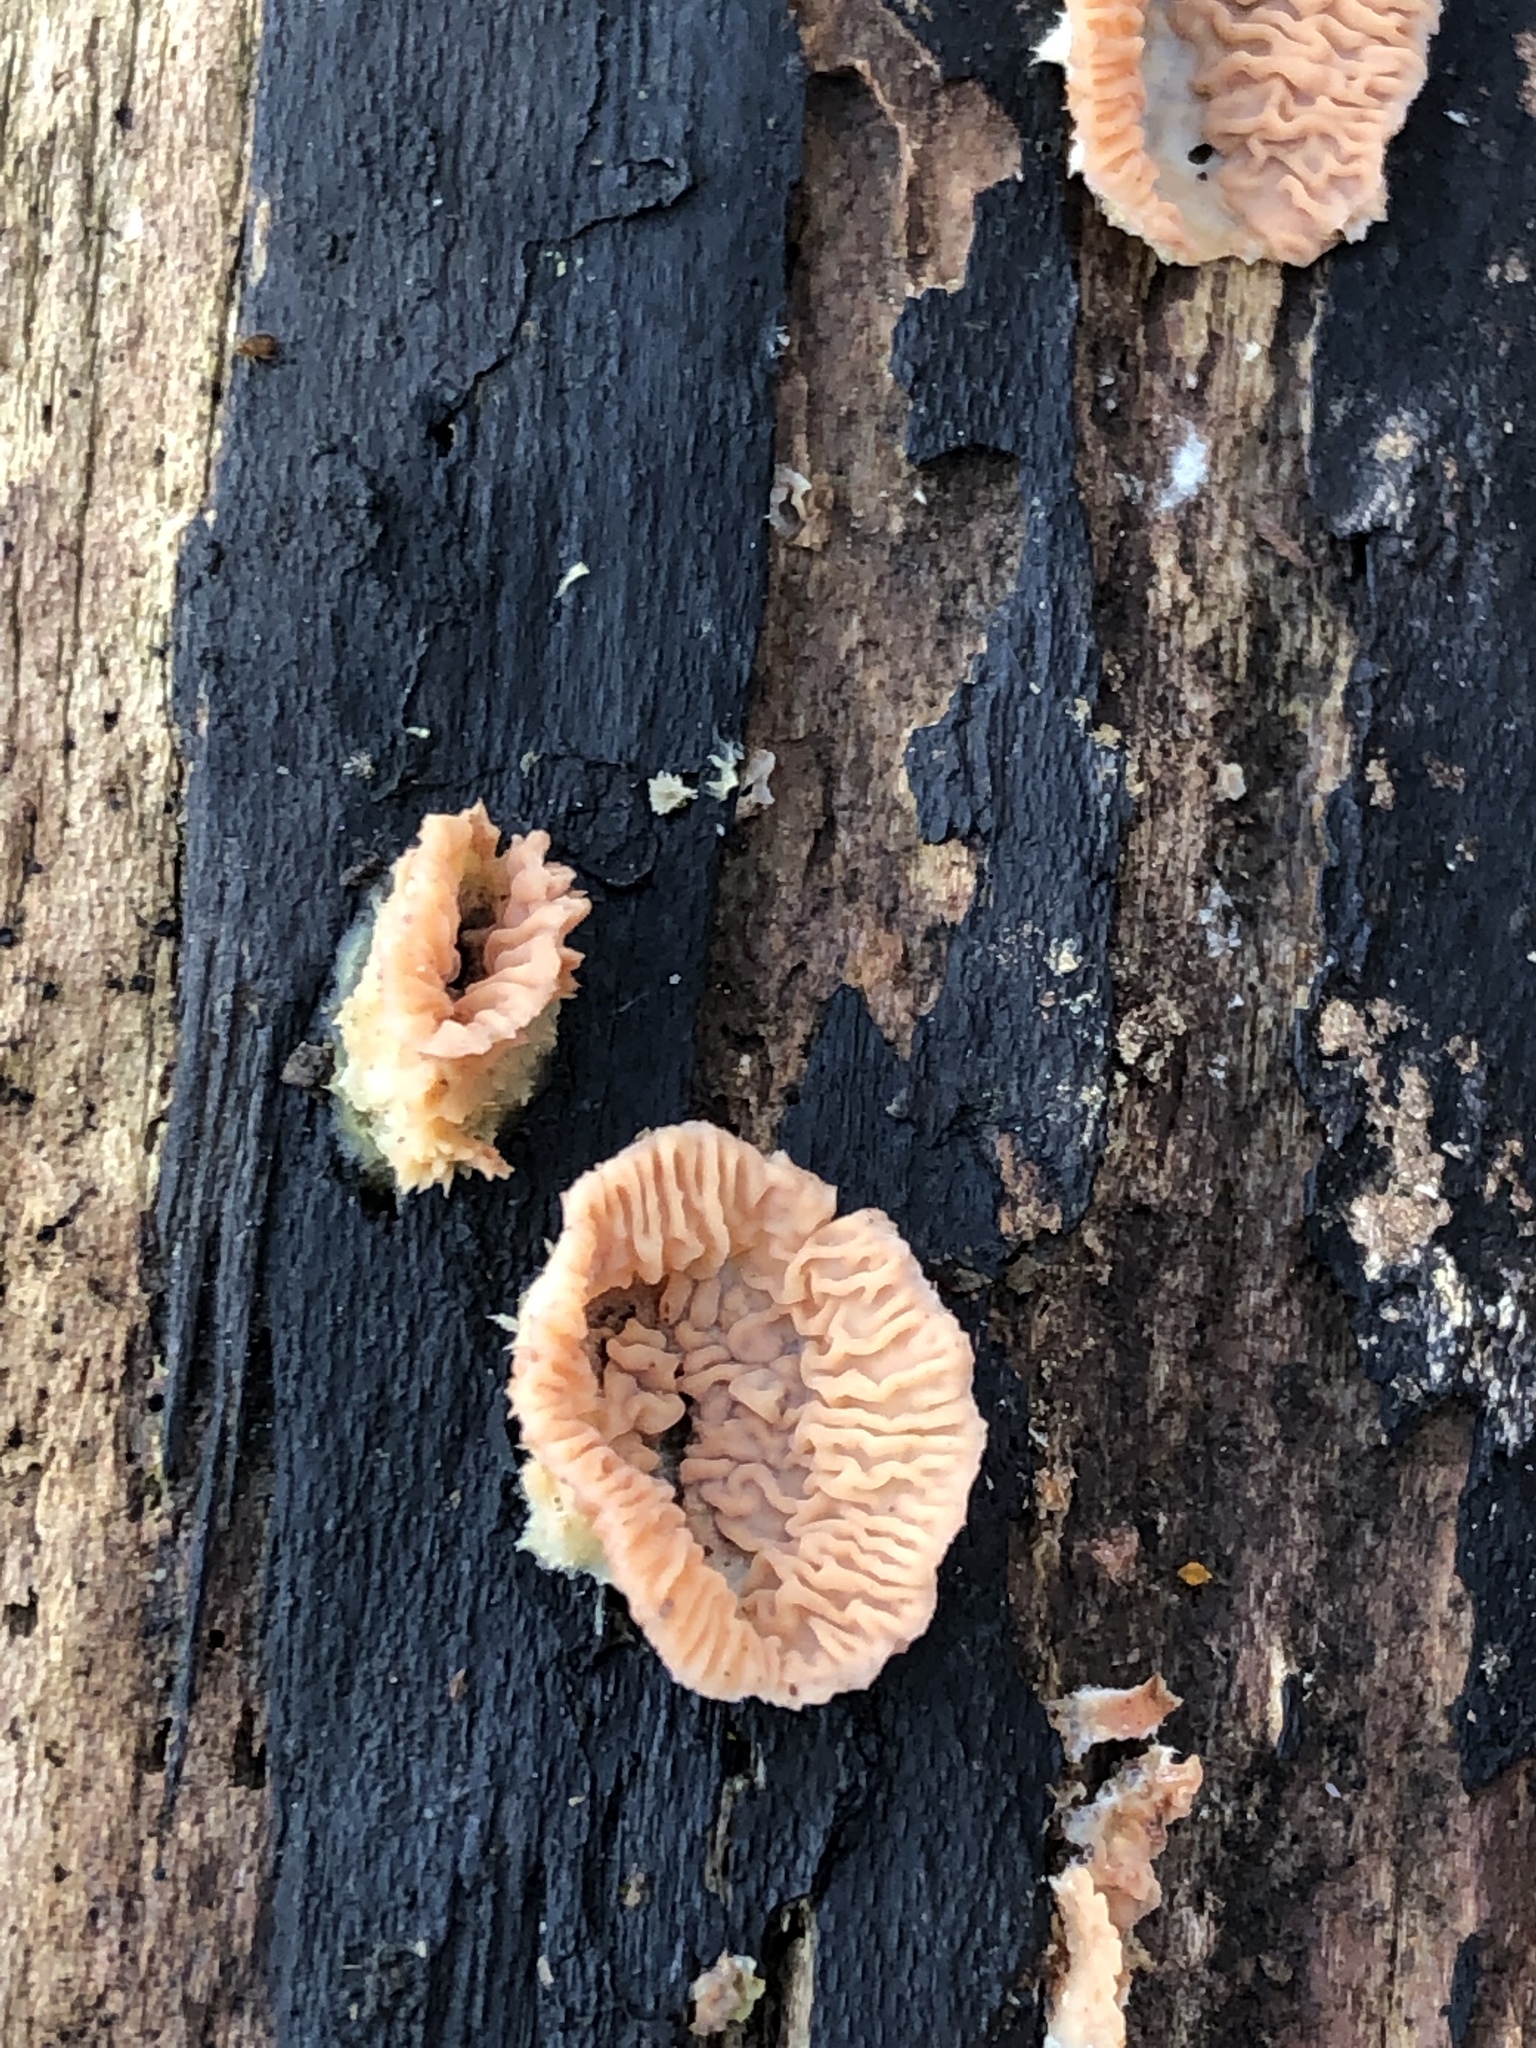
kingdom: Fungi
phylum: Basidiomycota
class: Agaricomycetes
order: Polyporales
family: Meruliaceae
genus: Phlebia
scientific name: Phlebia tremellosa
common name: Jelly rot
